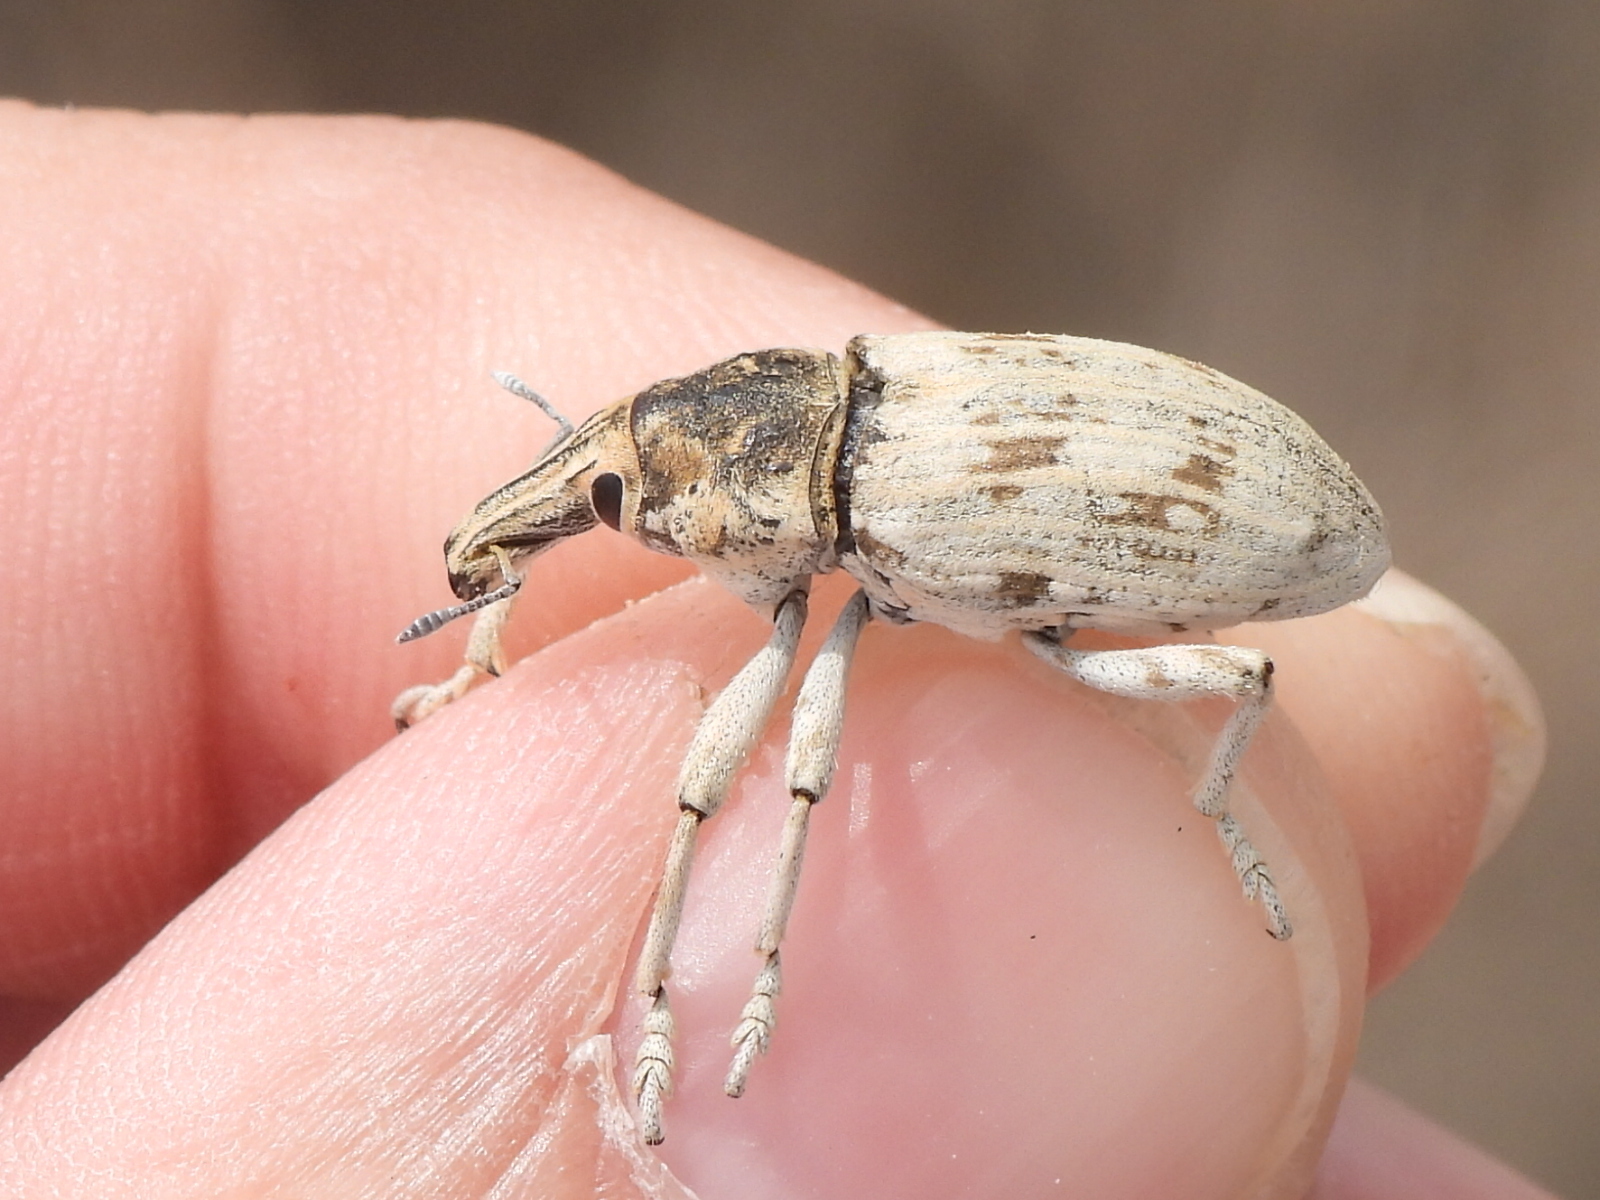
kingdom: Animalia
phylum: Arthropoda
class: Insecta
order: Coleoptera
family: Curculionidae
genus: Ammocleonus
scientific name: Ammocleonus hieroglyphicus
